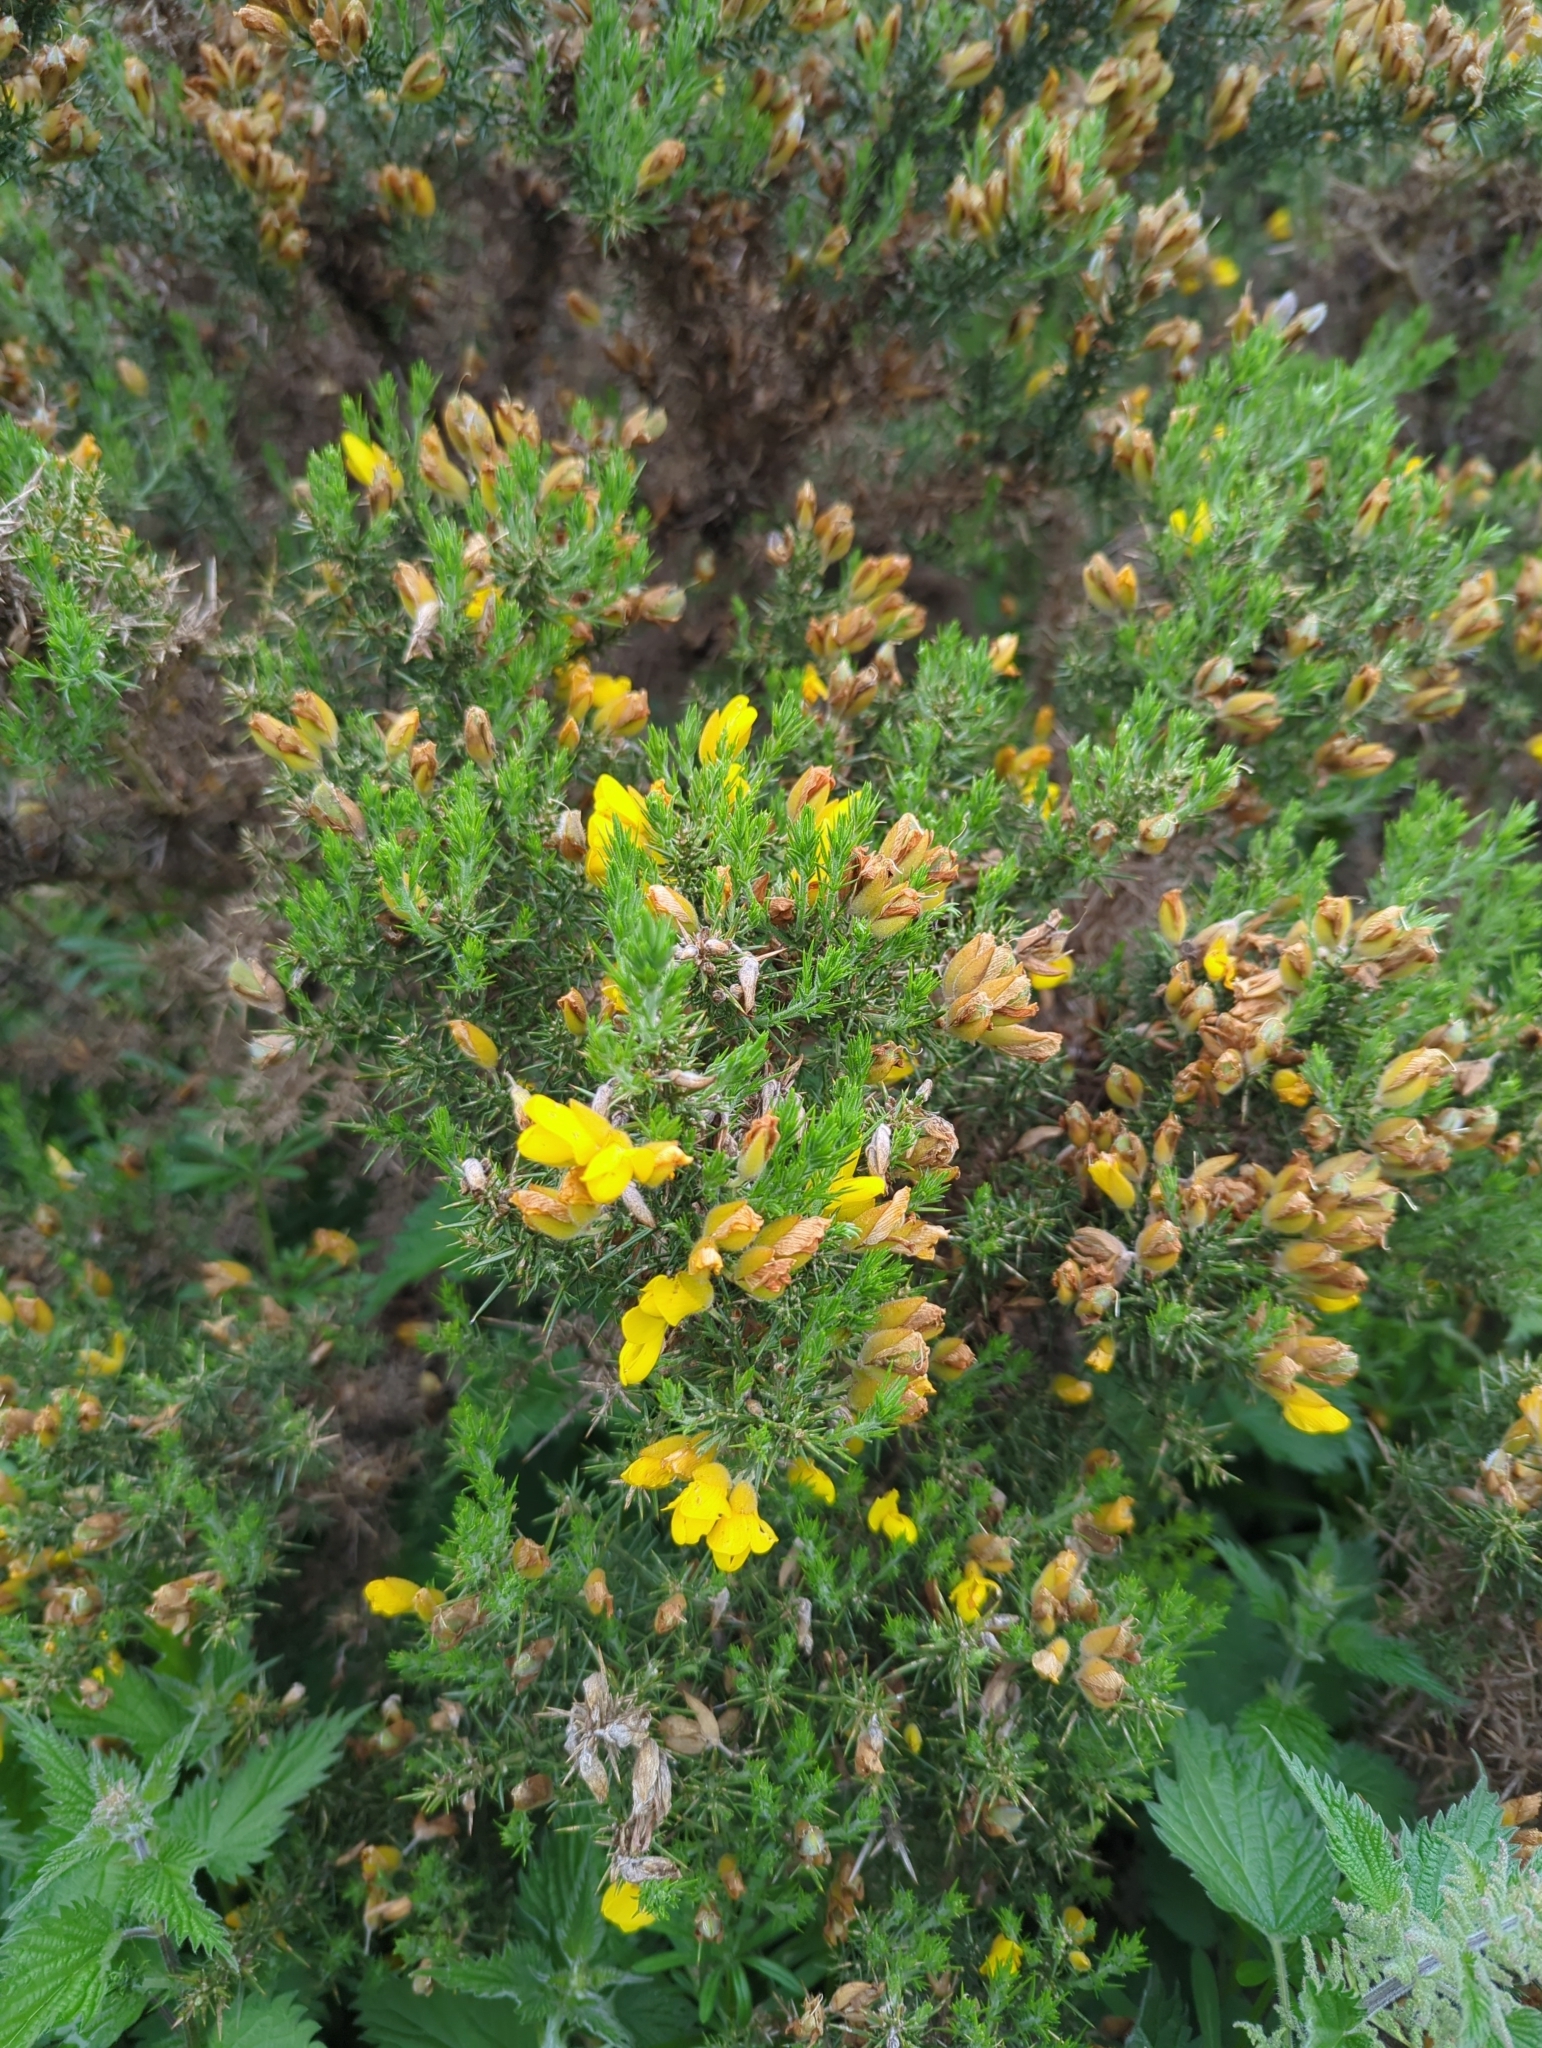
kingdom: Plantae
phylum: Tracheophyta
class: Magnoliopsida
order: Fabales
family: Fabaceae
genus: Ulex
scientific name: Ulex europaeus
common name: Common gorse
